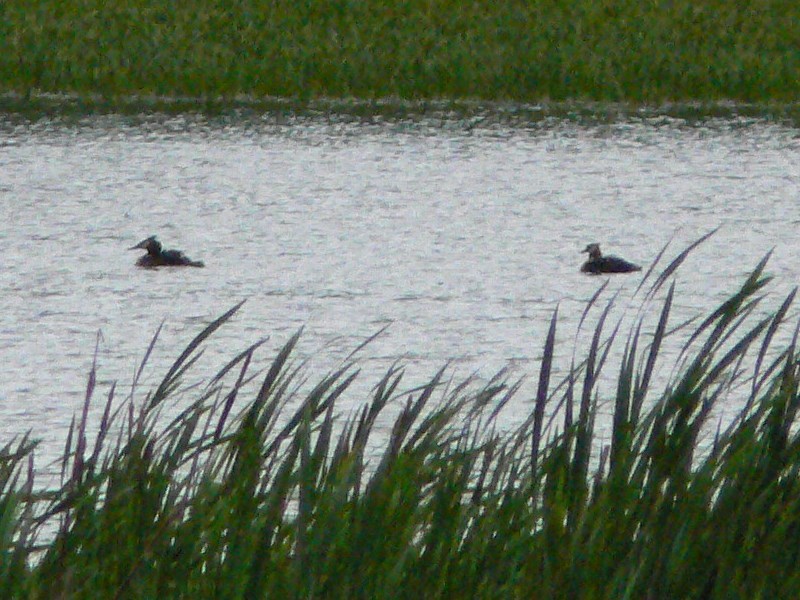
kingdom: Animalia
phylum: Chordata
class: Aves
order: Podicipediformes
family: Podicipedidae
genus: Podiceps
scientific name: Podiceps cristatus
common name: Great crested grebe
